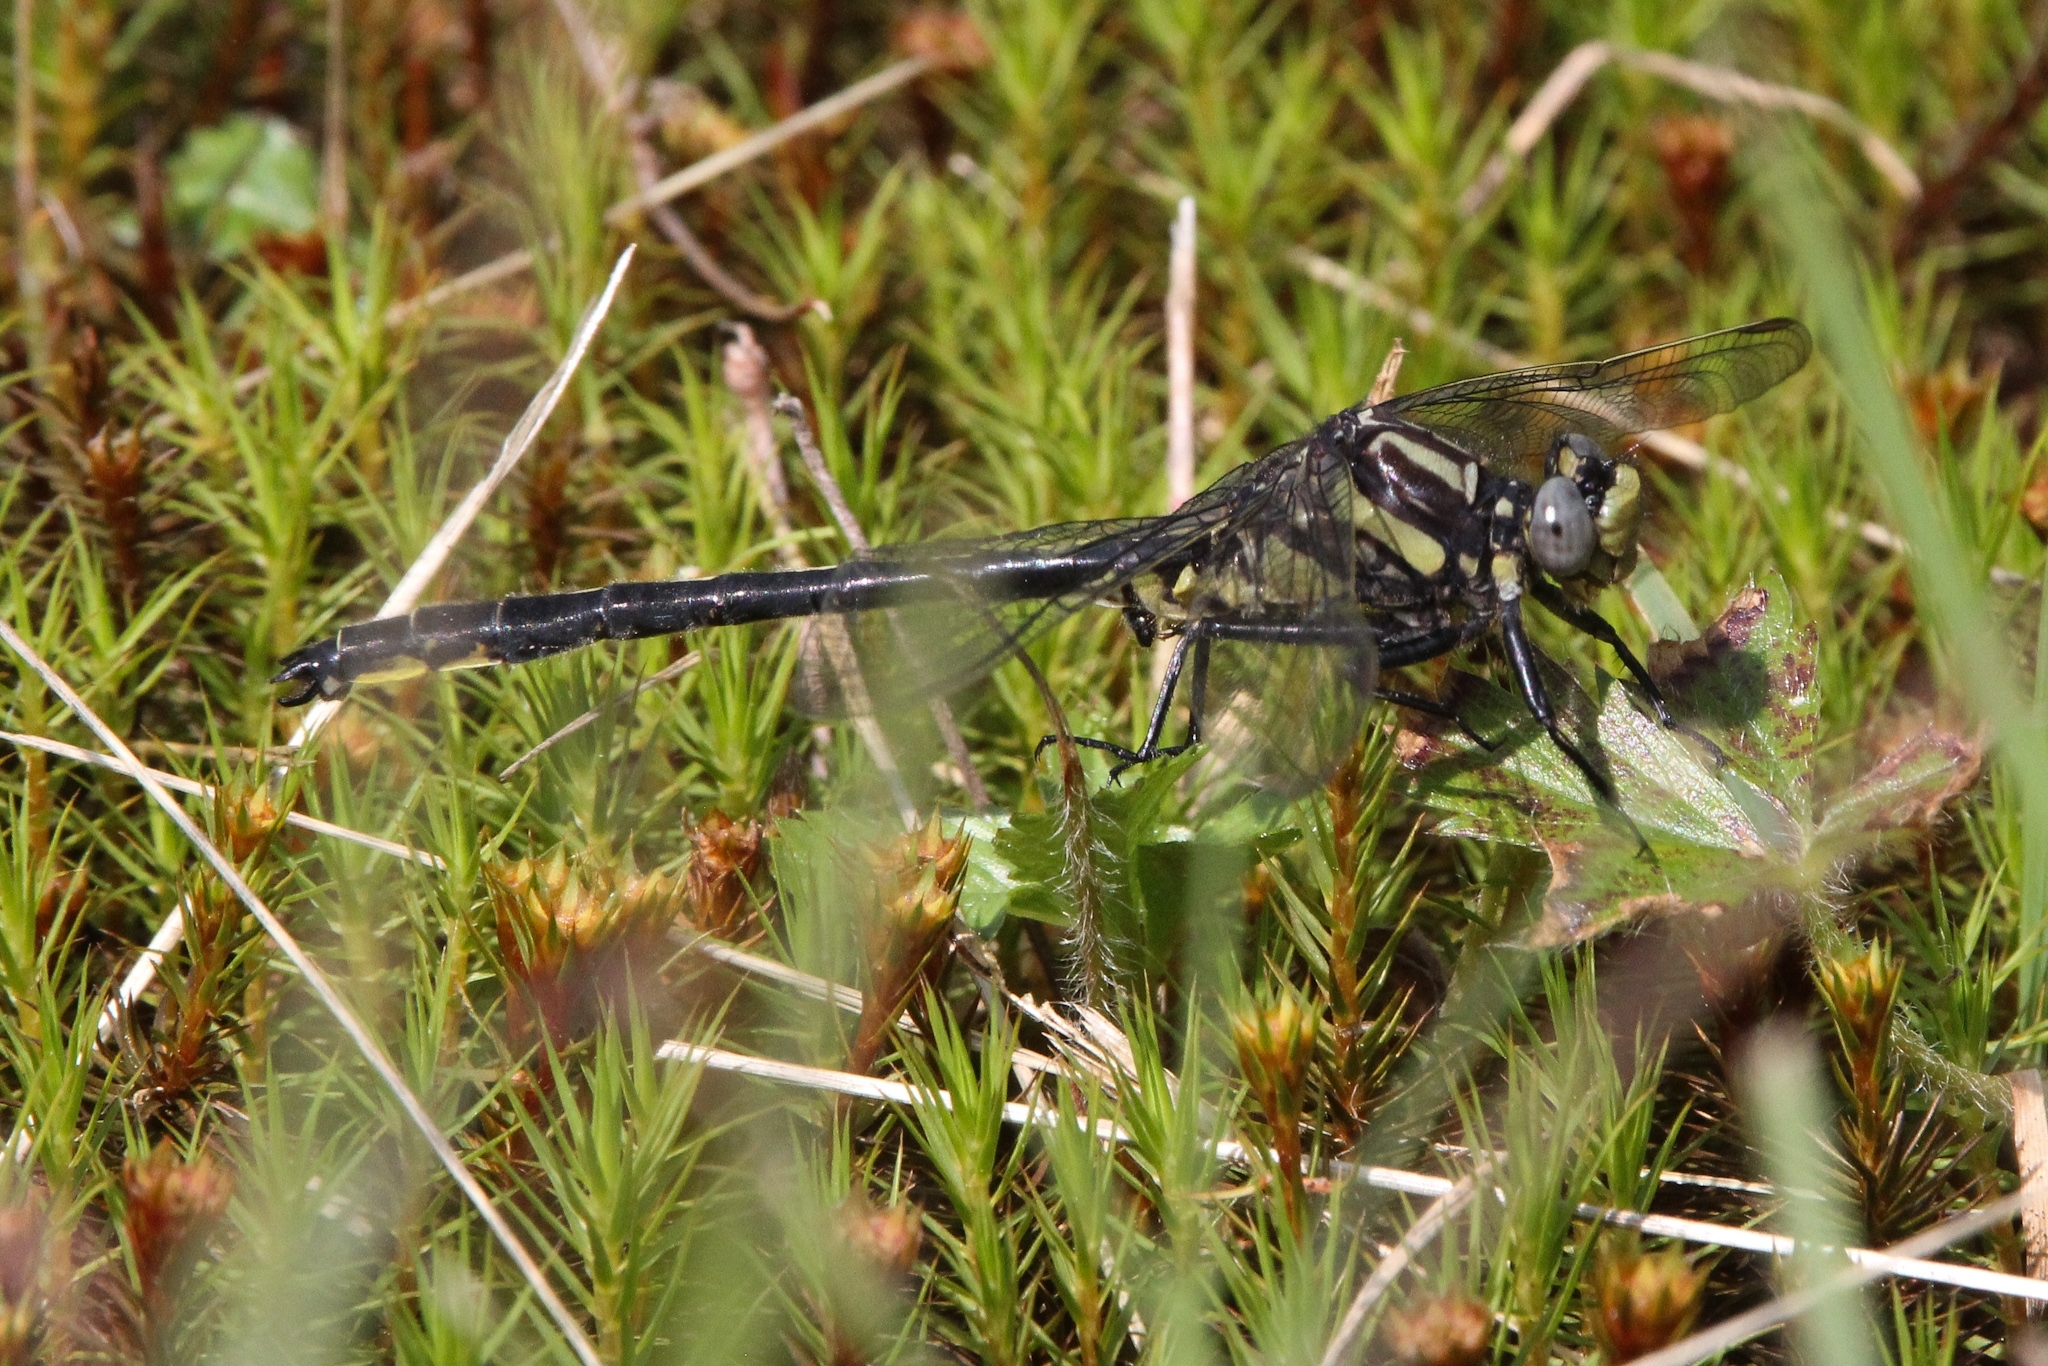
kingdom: Animalia
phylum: Arthropoda
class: Insecta
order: Odonata
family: Gomphidae
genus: Phanogomphus
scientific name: Phanogomphus descriptus
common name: Harpoon clubtail
